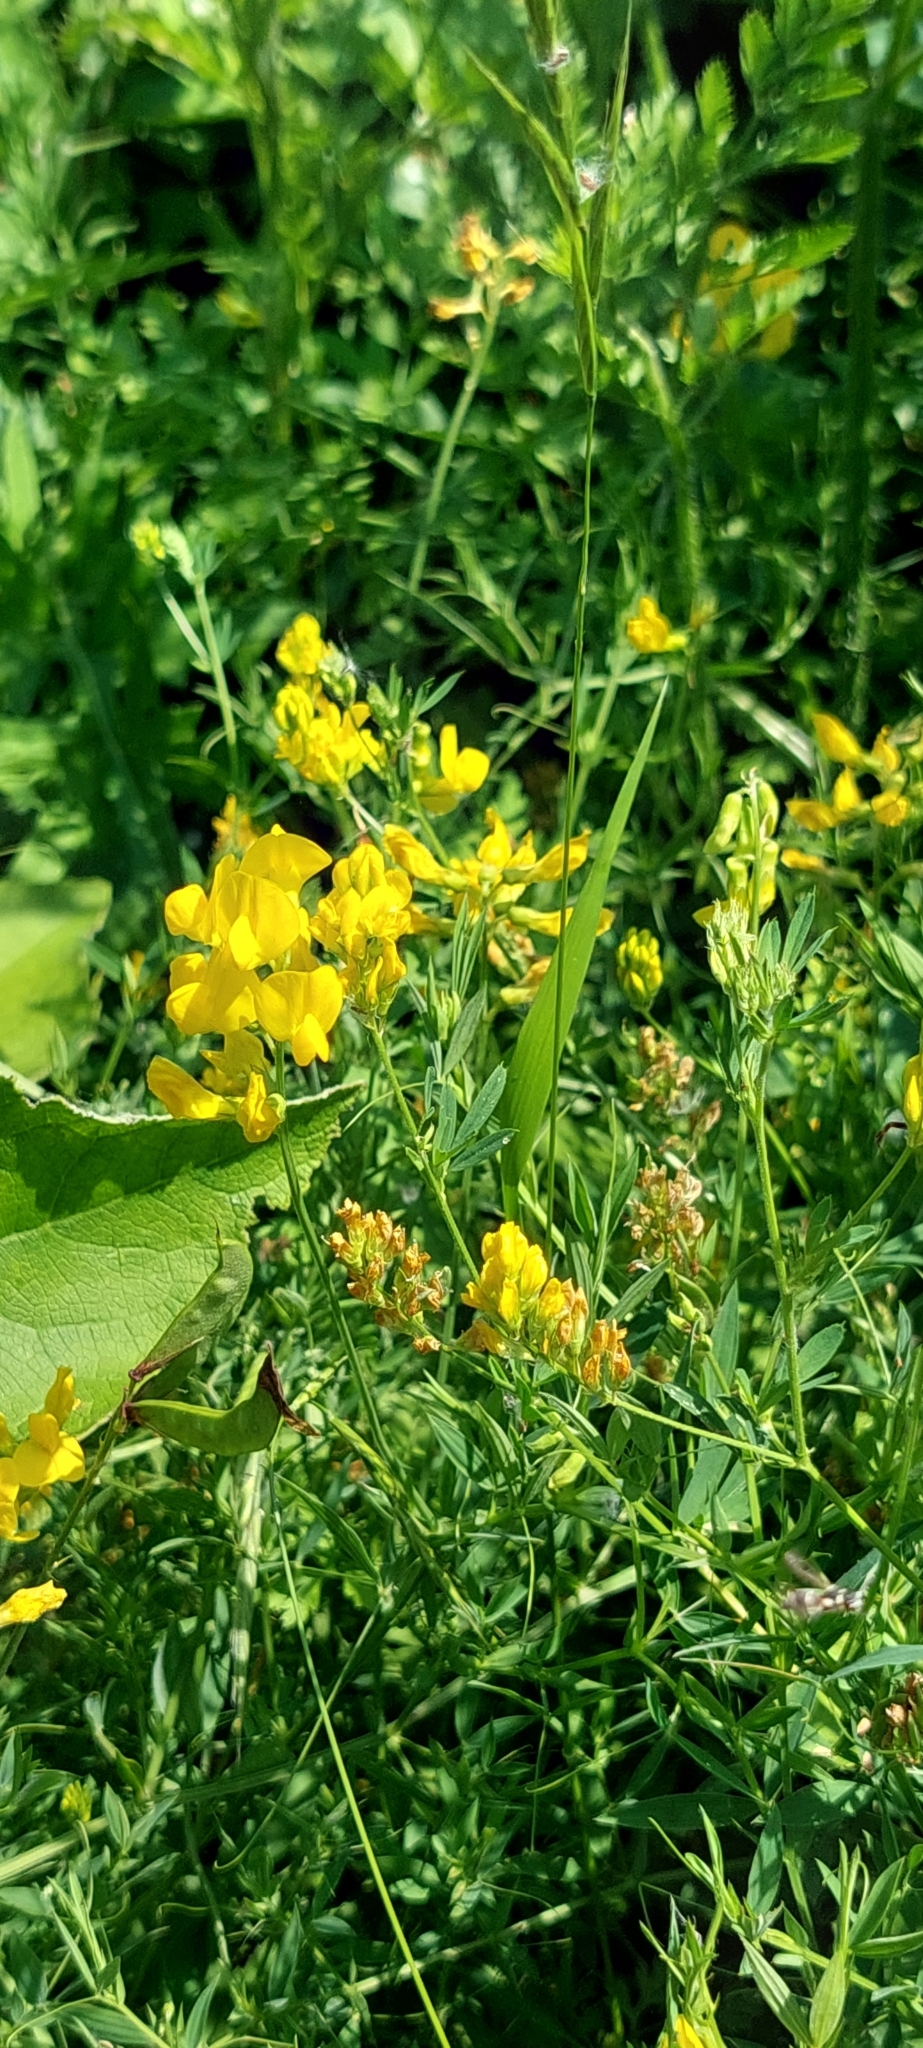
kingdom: Plantae
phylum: Tracheophyta
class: Magnoliopsida
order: Fabales
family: Fabaceae
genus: Lathyrus
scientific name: Lathyrus pratensis
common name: Meadow vetchling
